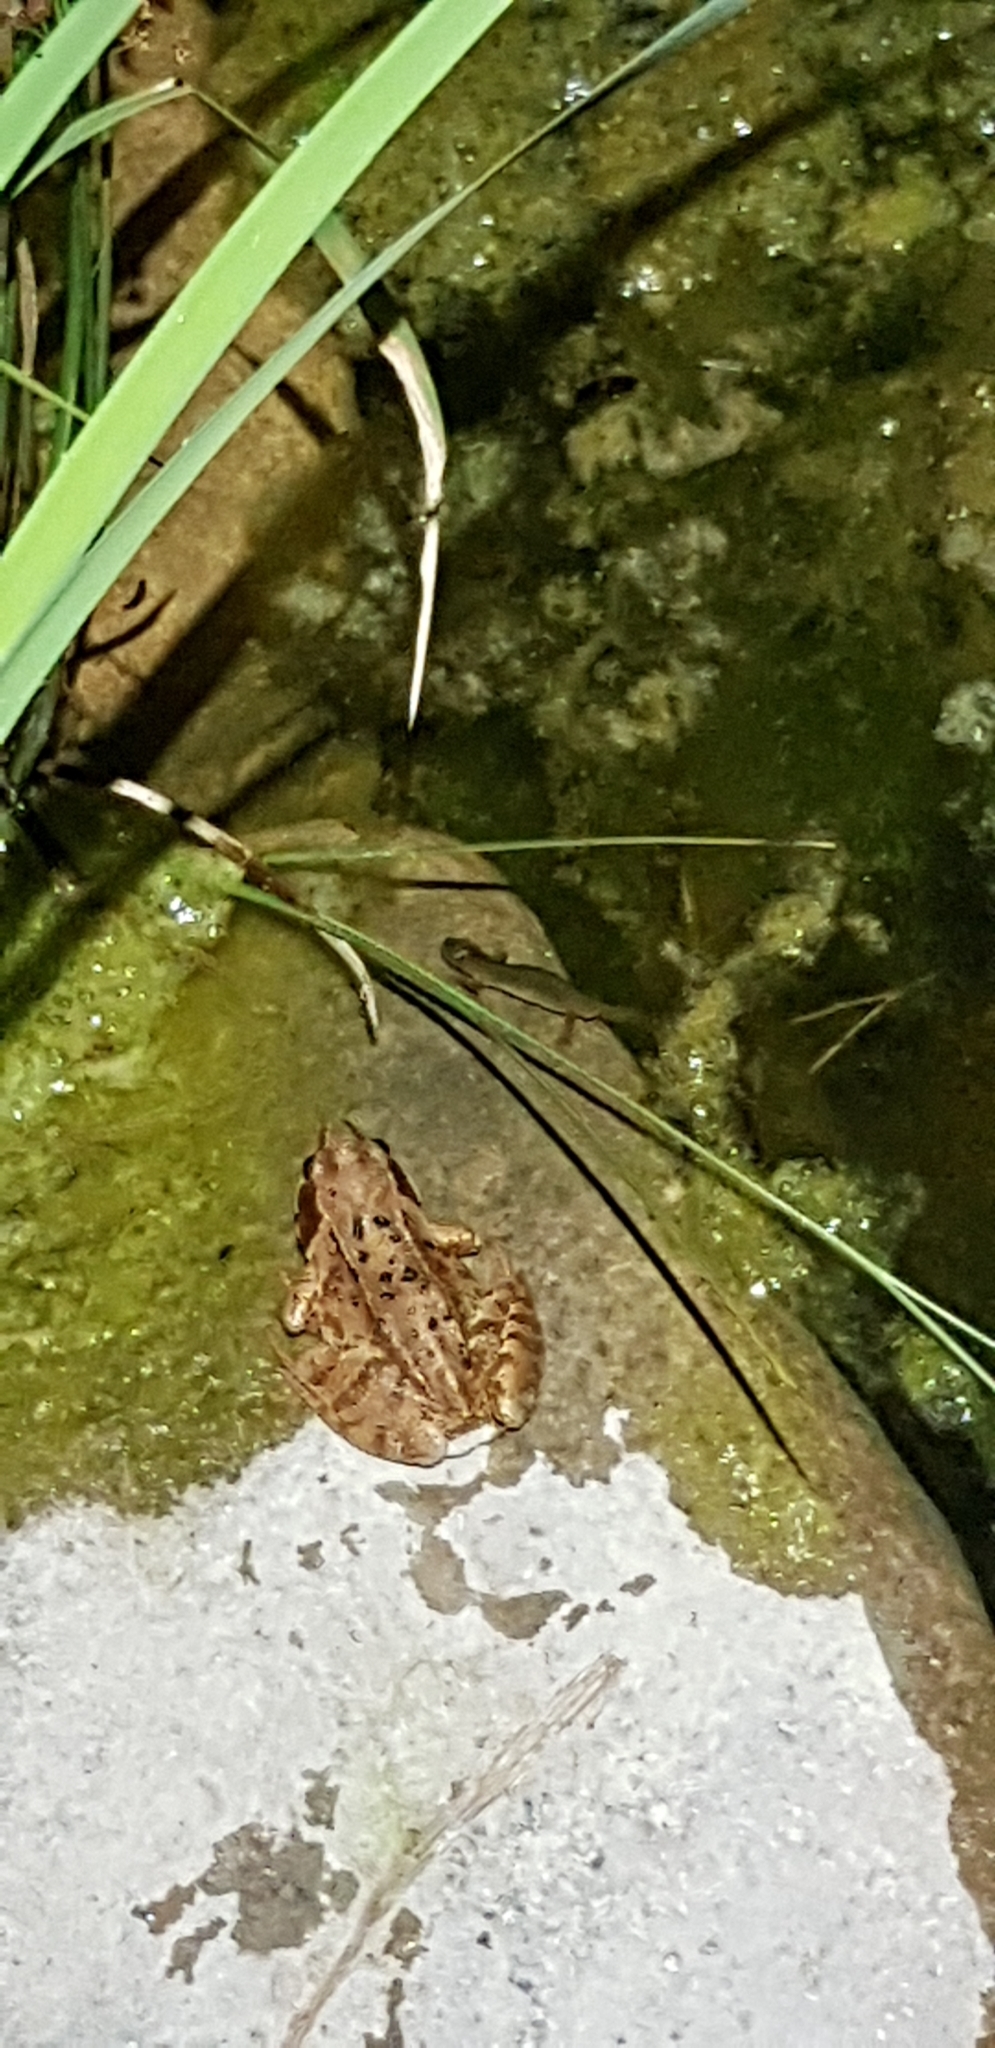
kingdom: Animalia
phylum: Chordata
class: Amphibia
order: Anura
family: Ranidae
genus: Rana
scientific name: Rana temporaria
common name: Common frog
